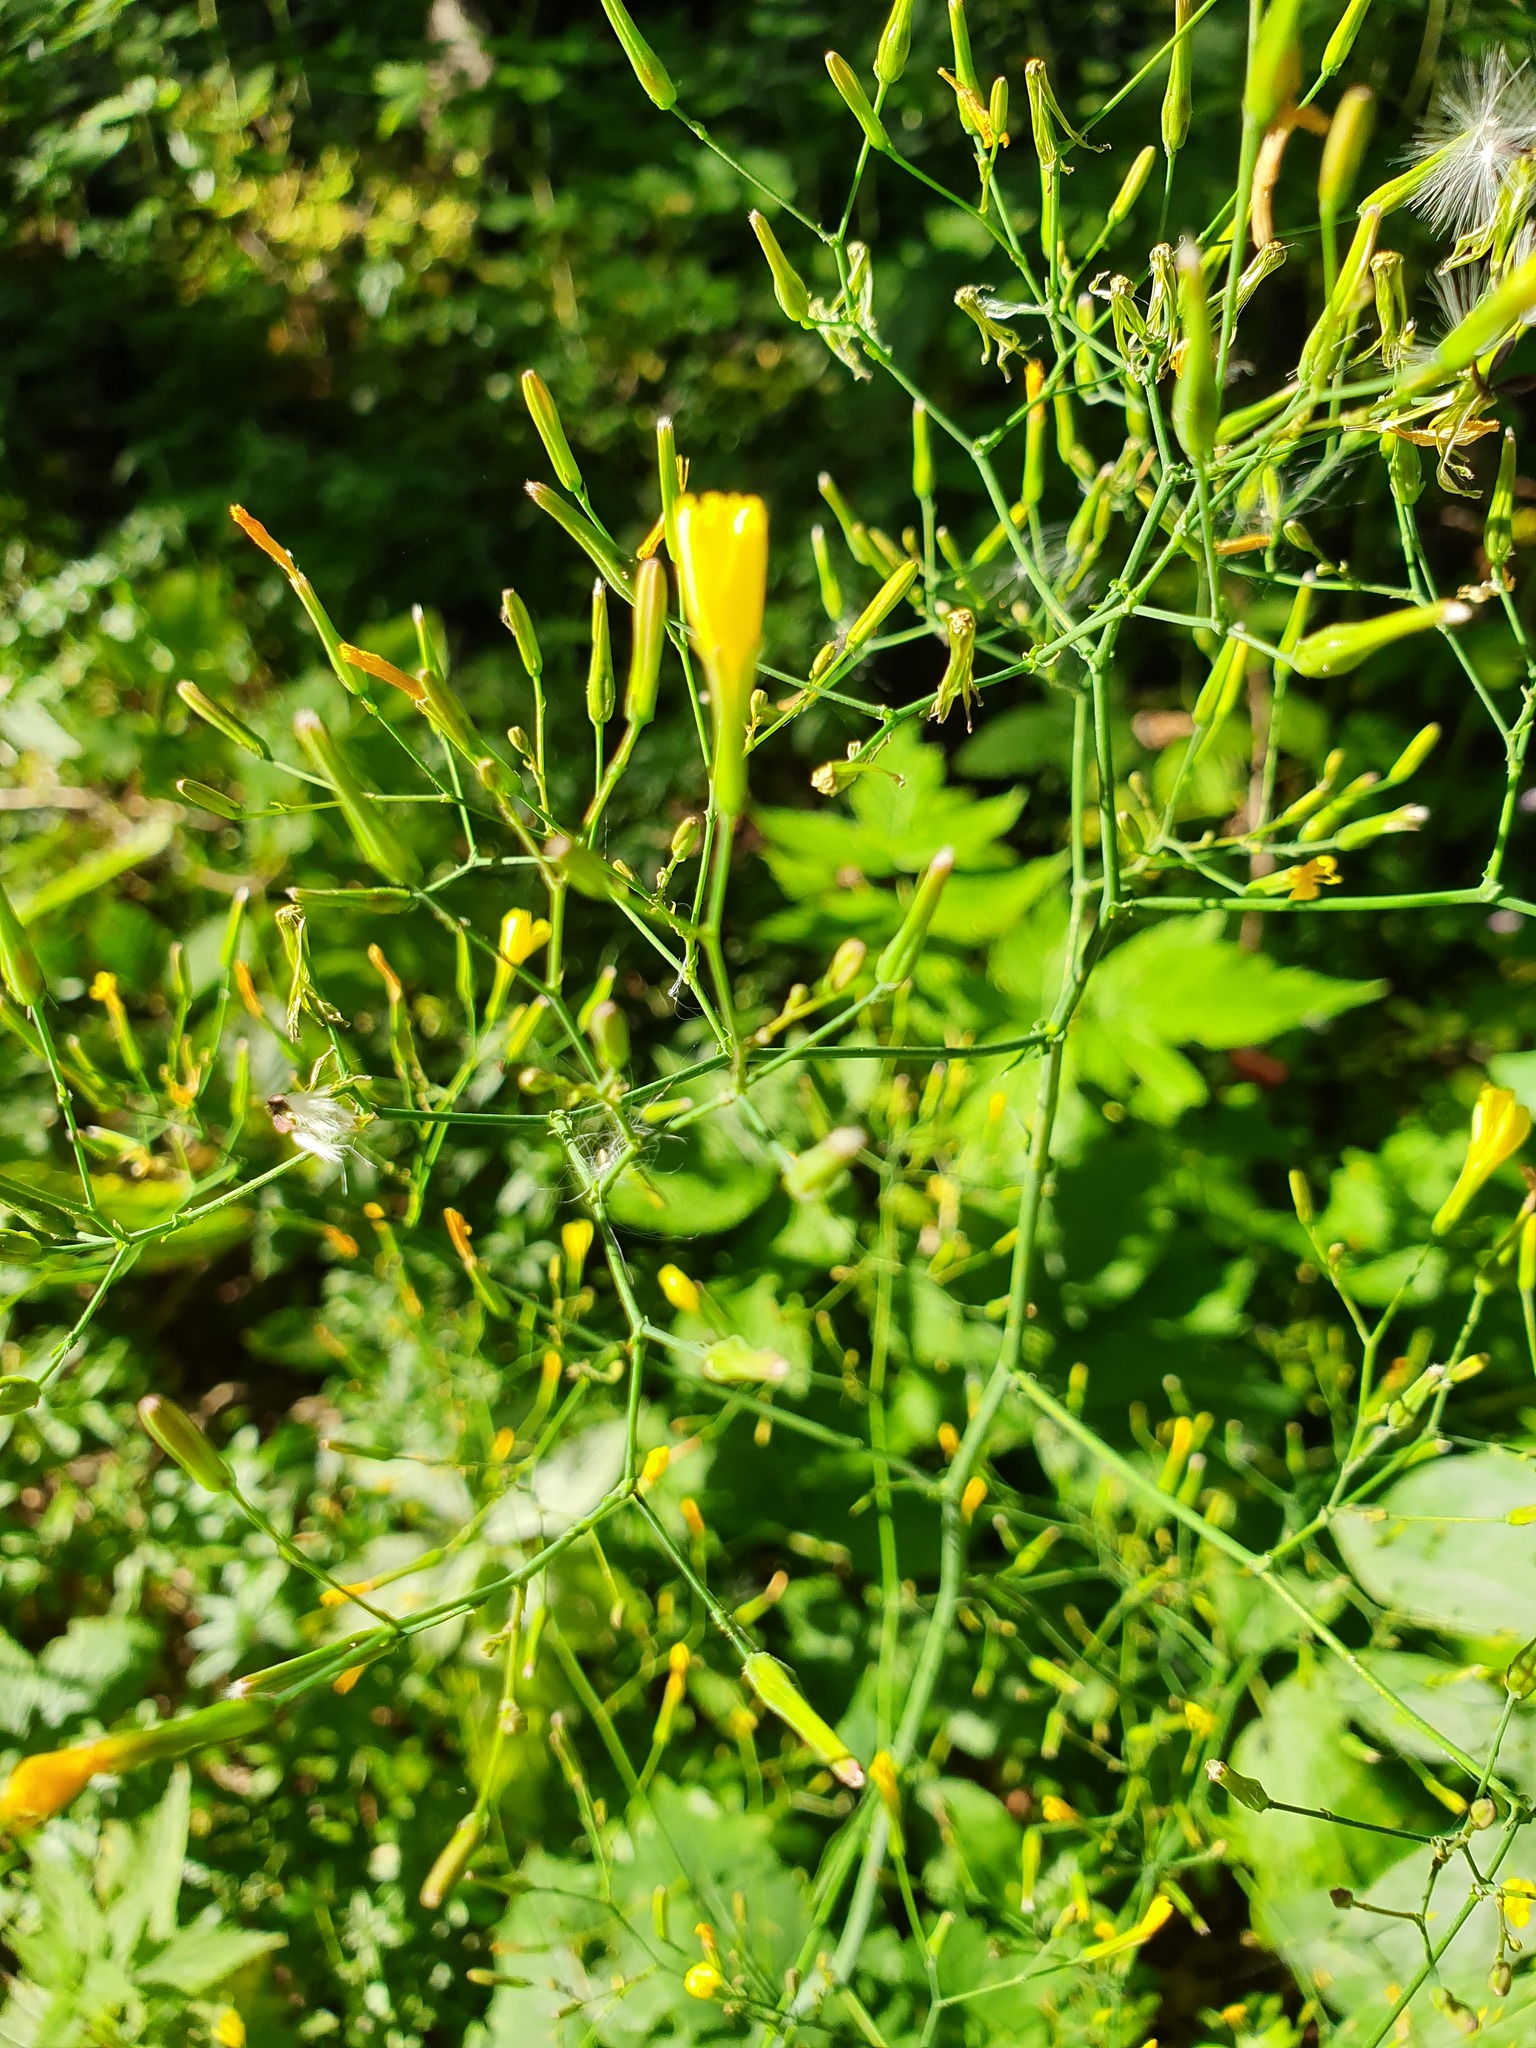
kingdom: Plantae
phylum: Tracheophyta
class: Magnoliopsida
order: Asterales
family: Asteraceae
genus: Mycelis
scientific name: Mycelis muralis
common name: Wall lettuce
